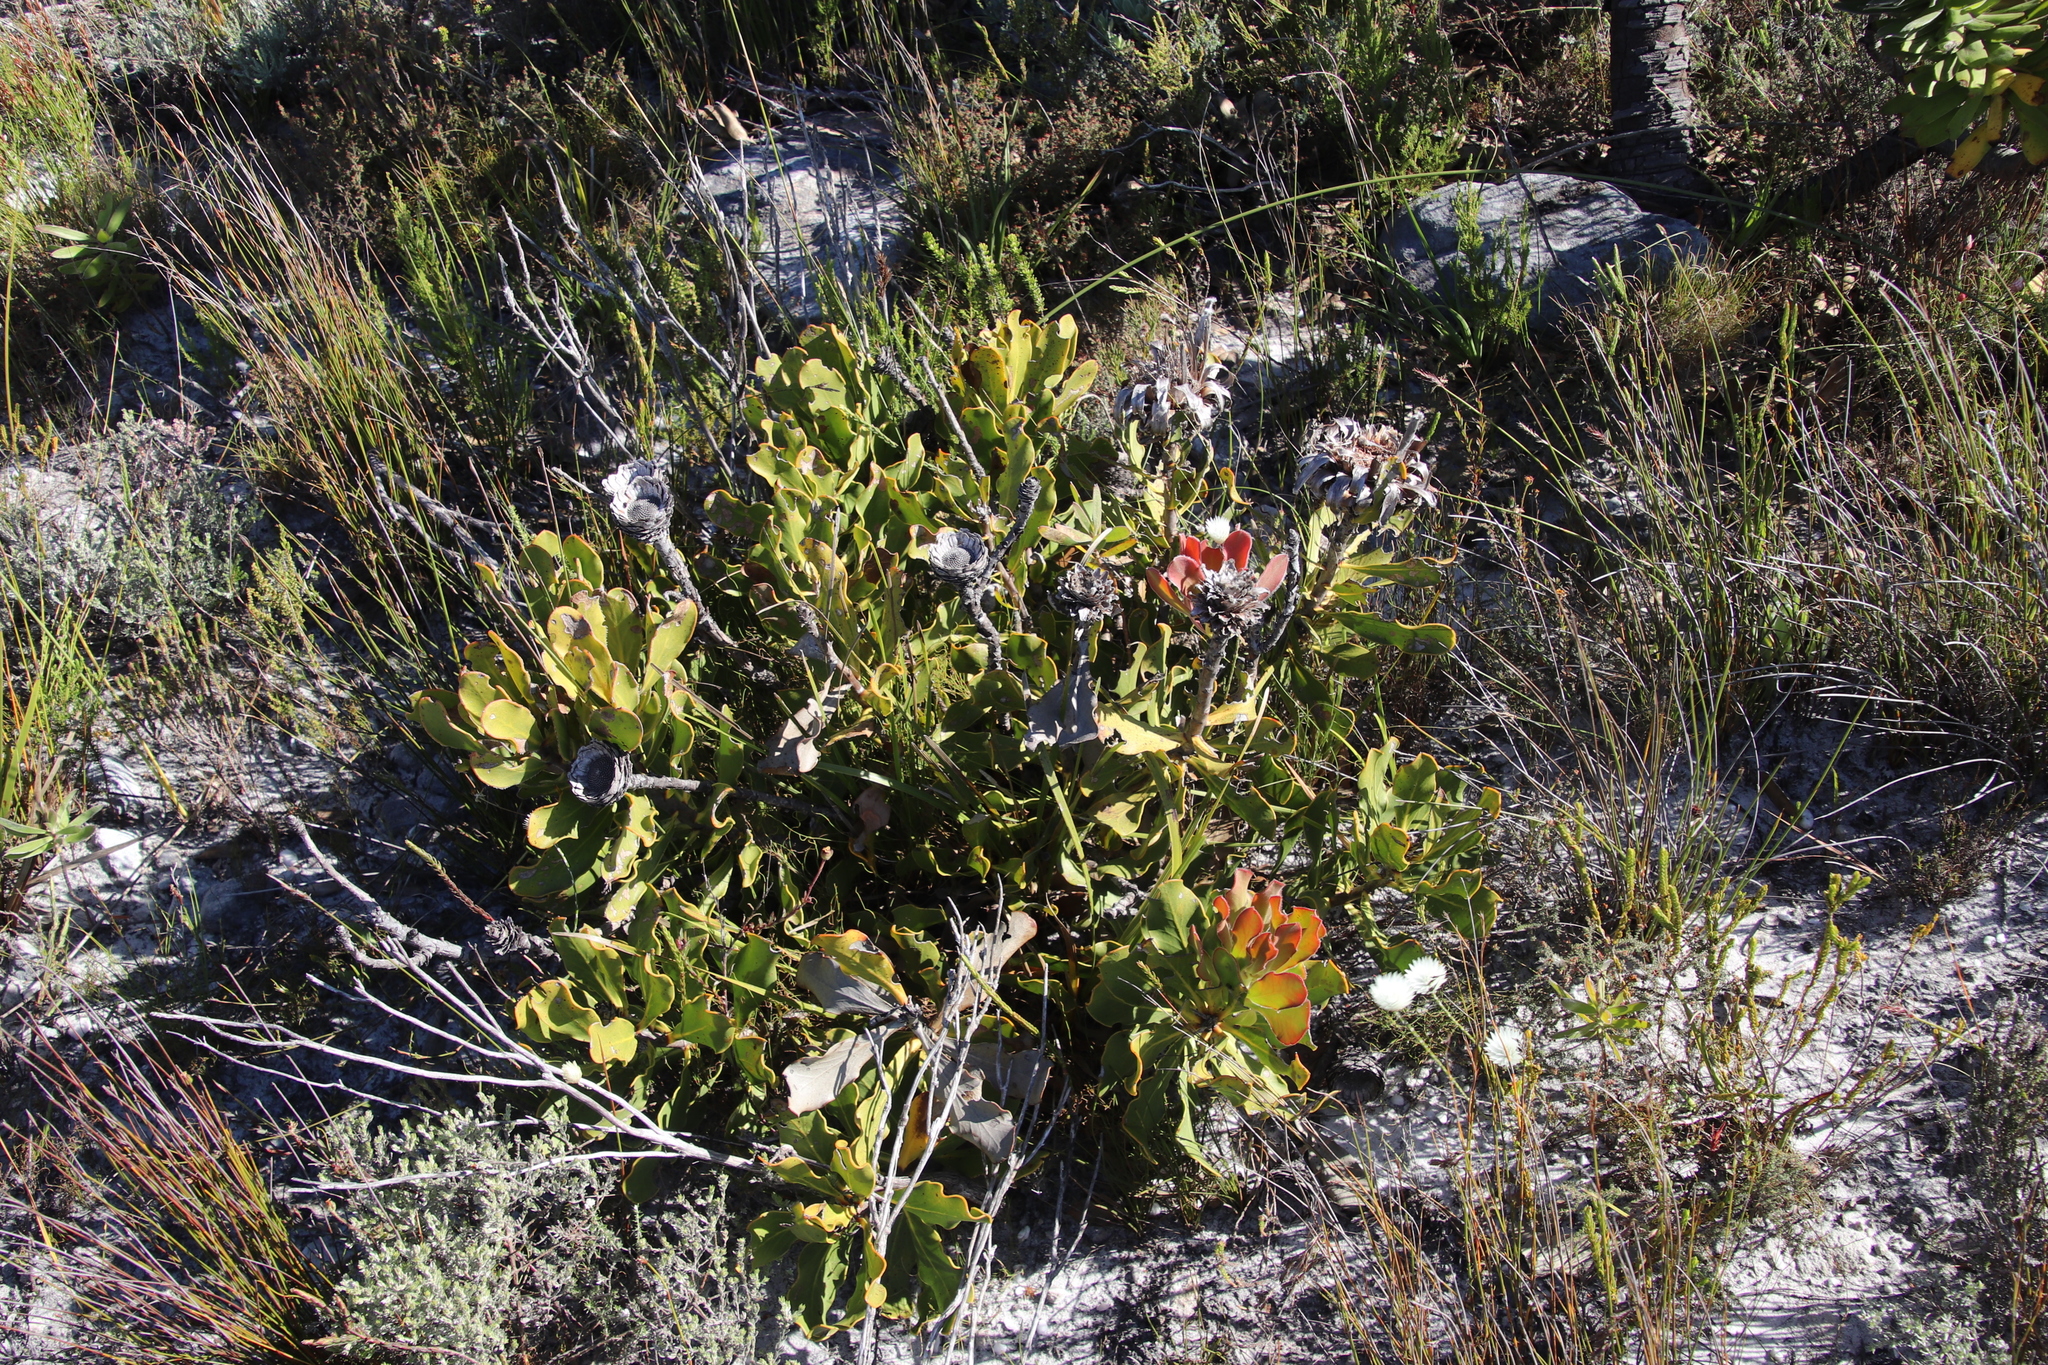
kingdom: Plantae
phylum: Tracheophyta
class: Magnoliopsida
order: Proteales
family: Proteaceae
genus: Protea
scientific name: Protea speciosa
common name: Brown-beard sugarbush
